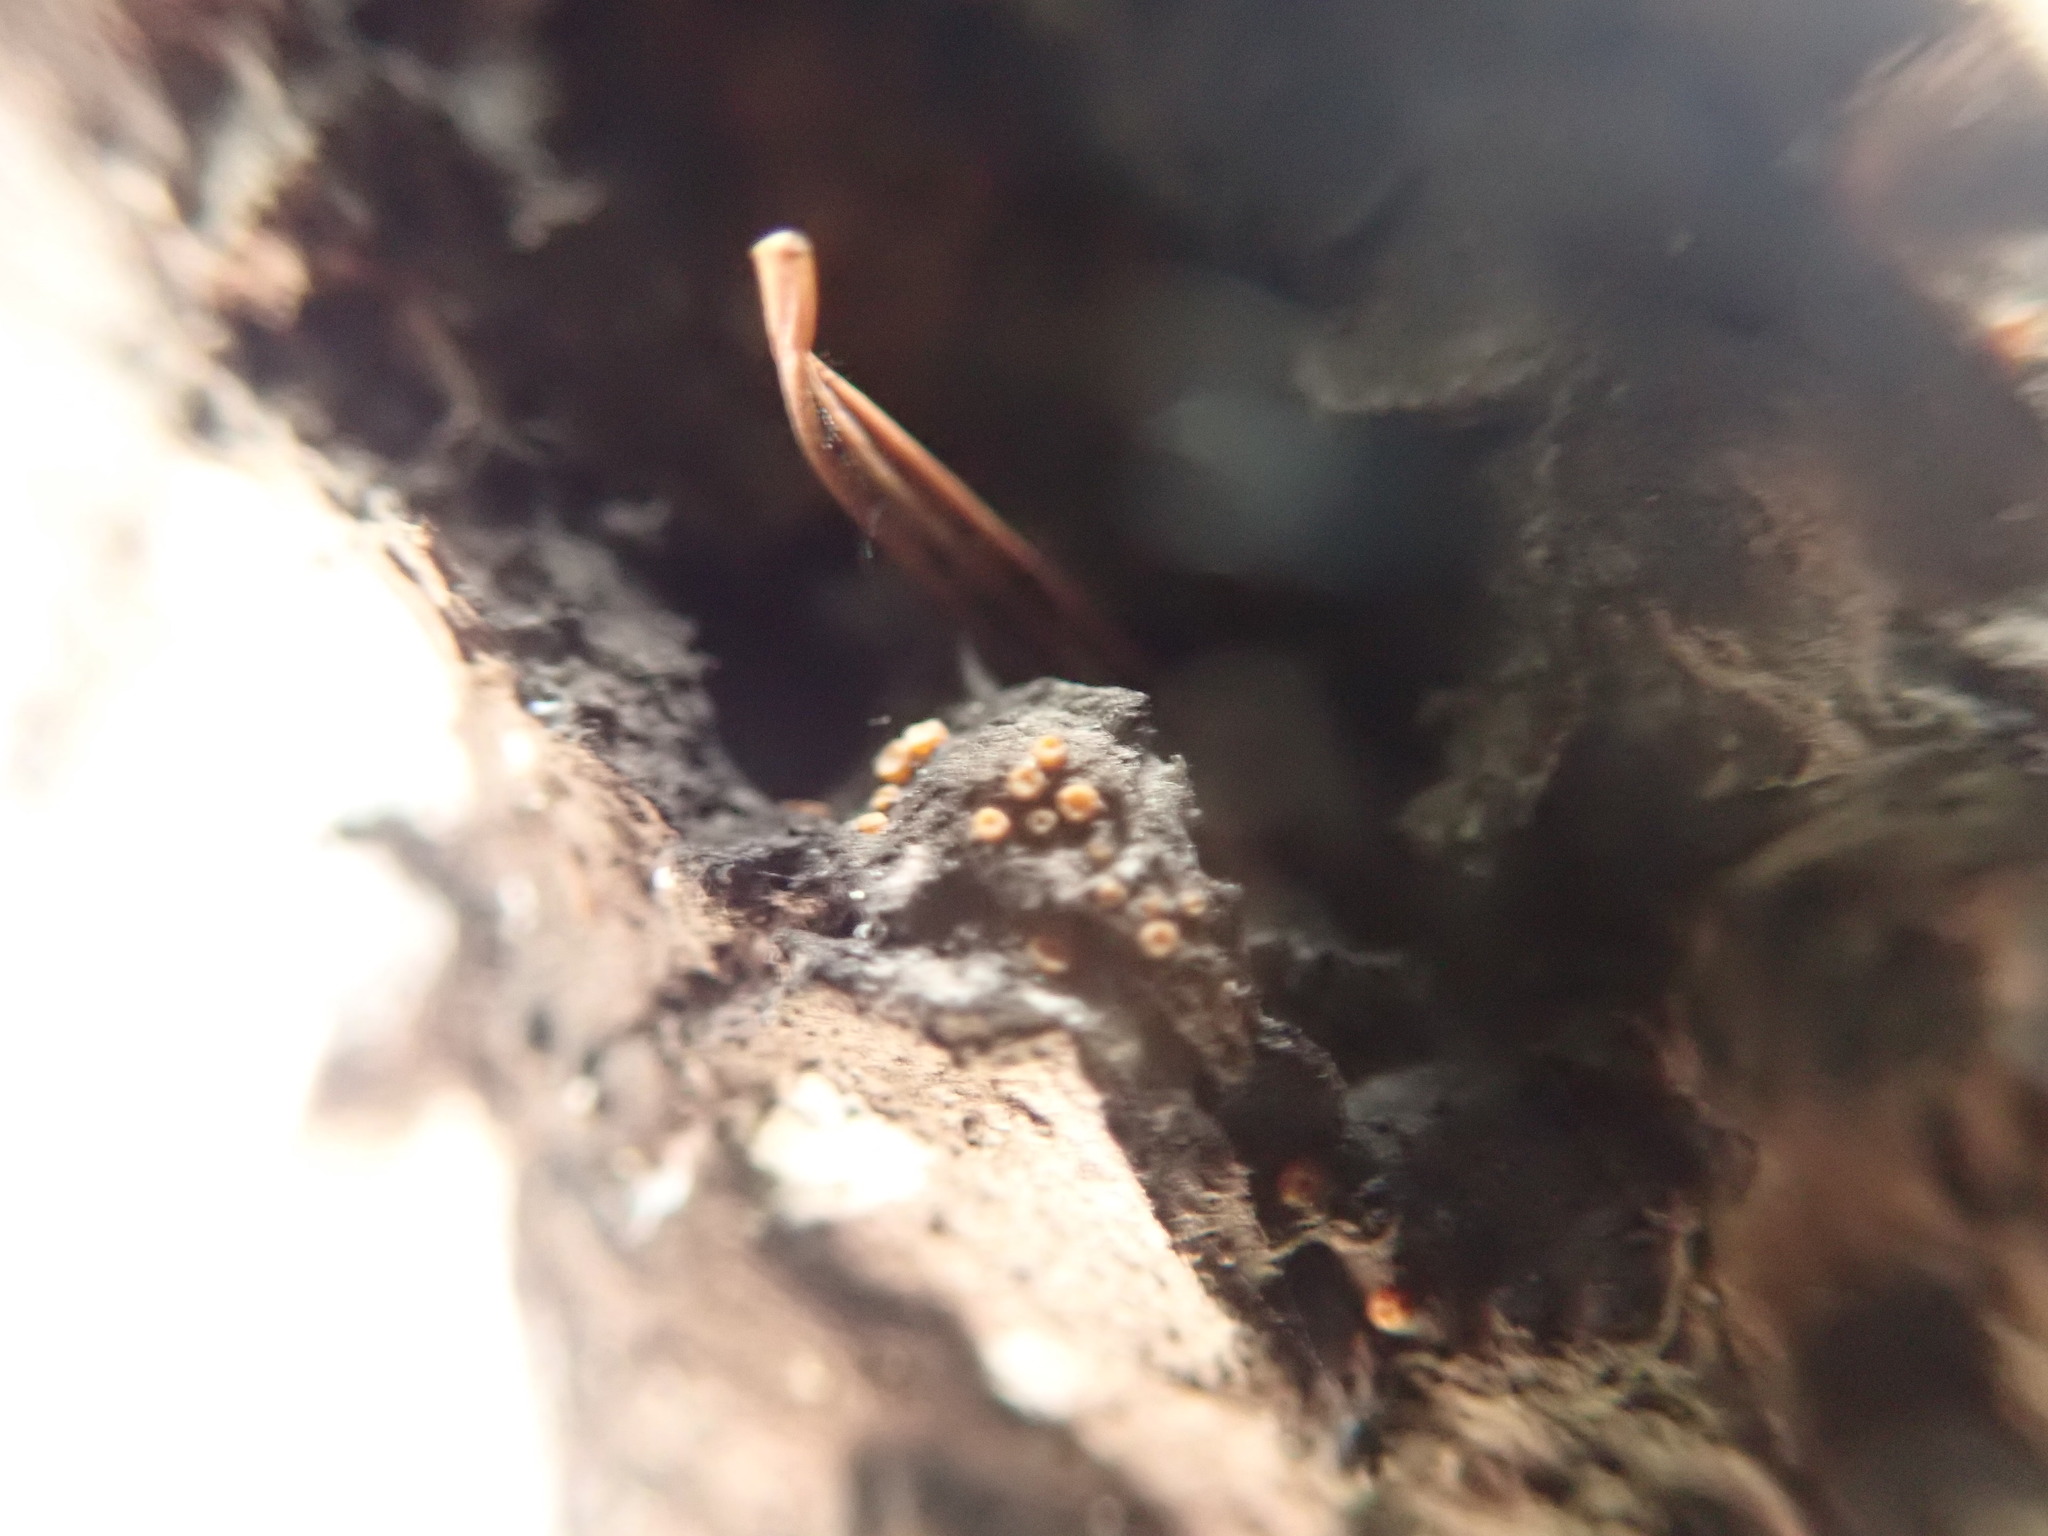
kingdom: Fungi
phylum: Ascomycota
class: Sareomycetes
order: Sareales
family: Sareaceae
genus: Sarea
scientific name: Sarea resinae
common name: Sarea lichen
